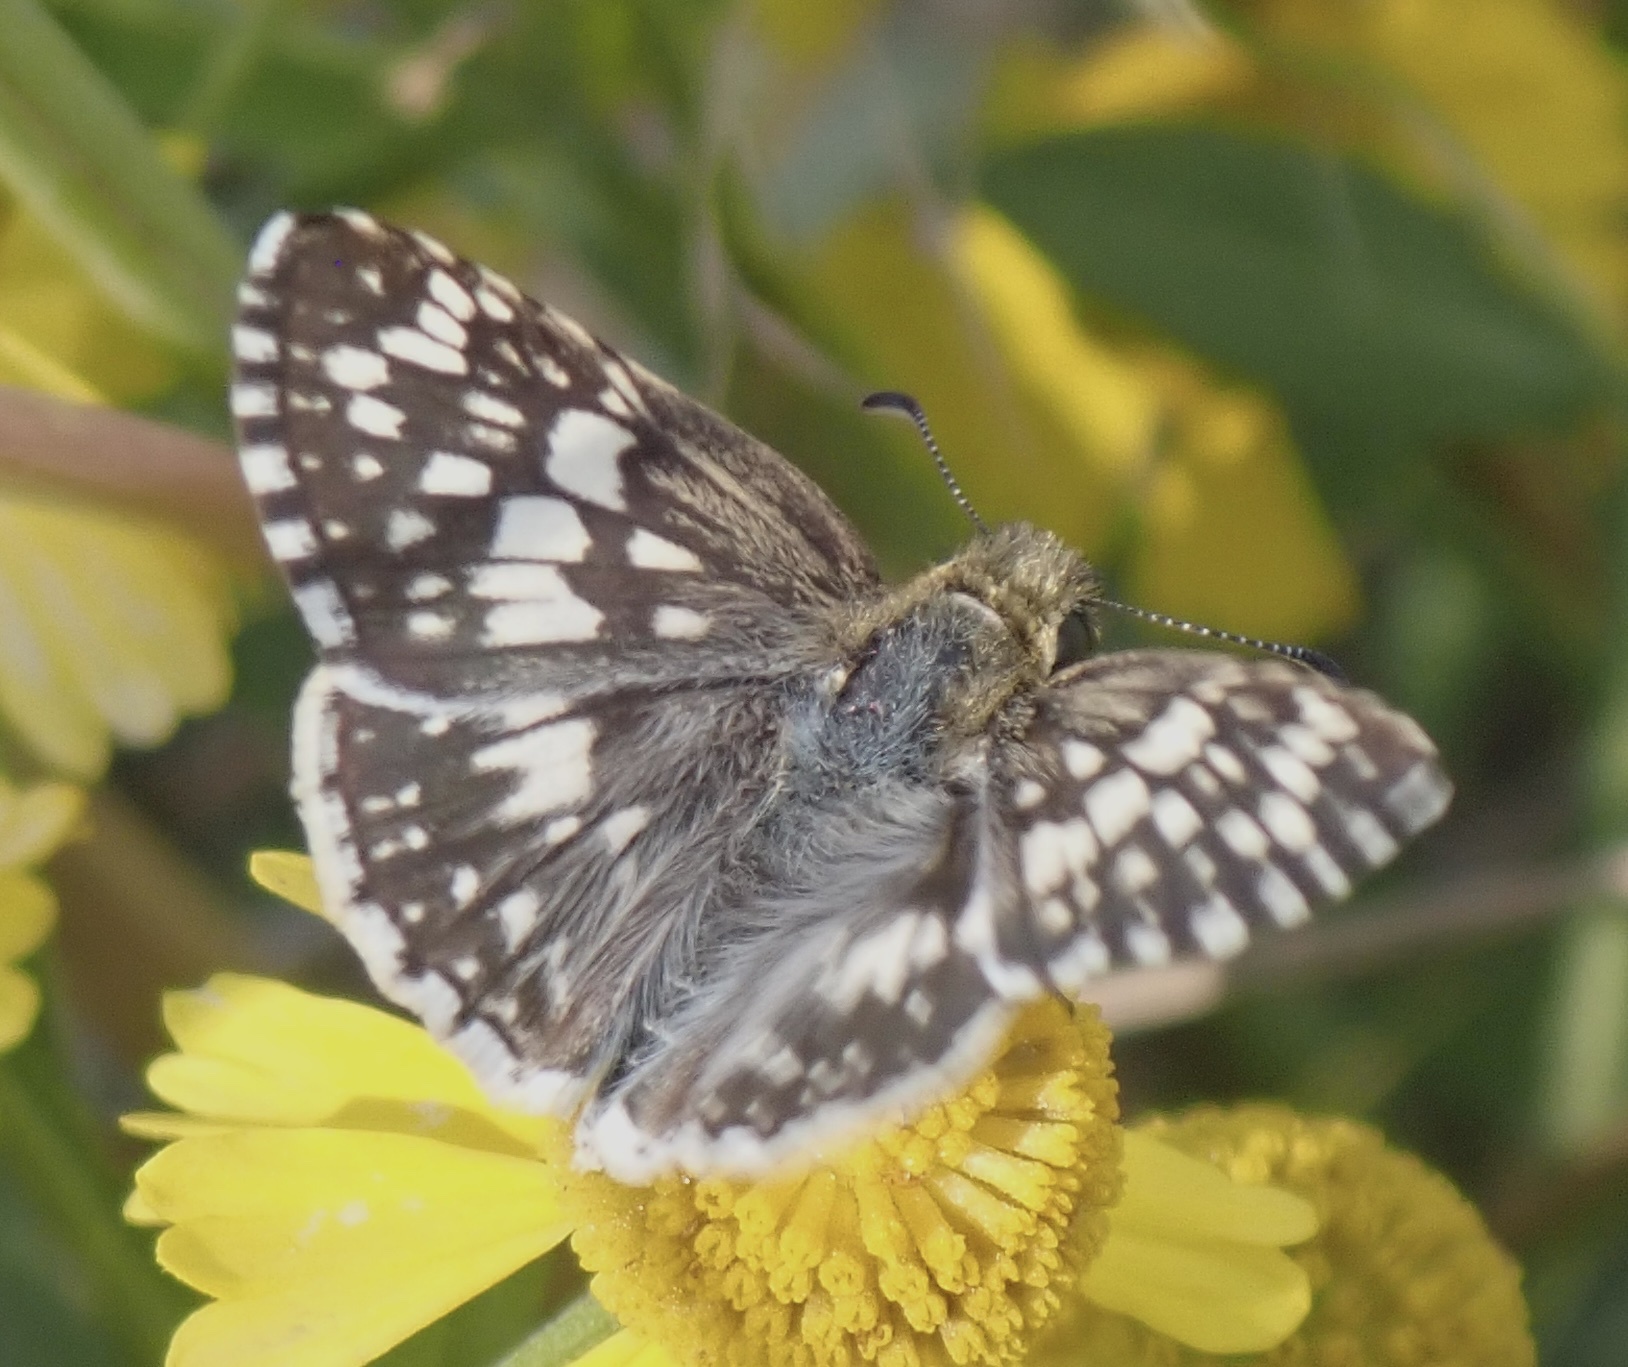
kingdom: Animalia
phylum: Arthropoda
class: Insecta
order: Lepidoptera
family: Hesperiidae
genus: Burnsius
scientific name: Burnsius communis
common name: Common checkered-skipper
